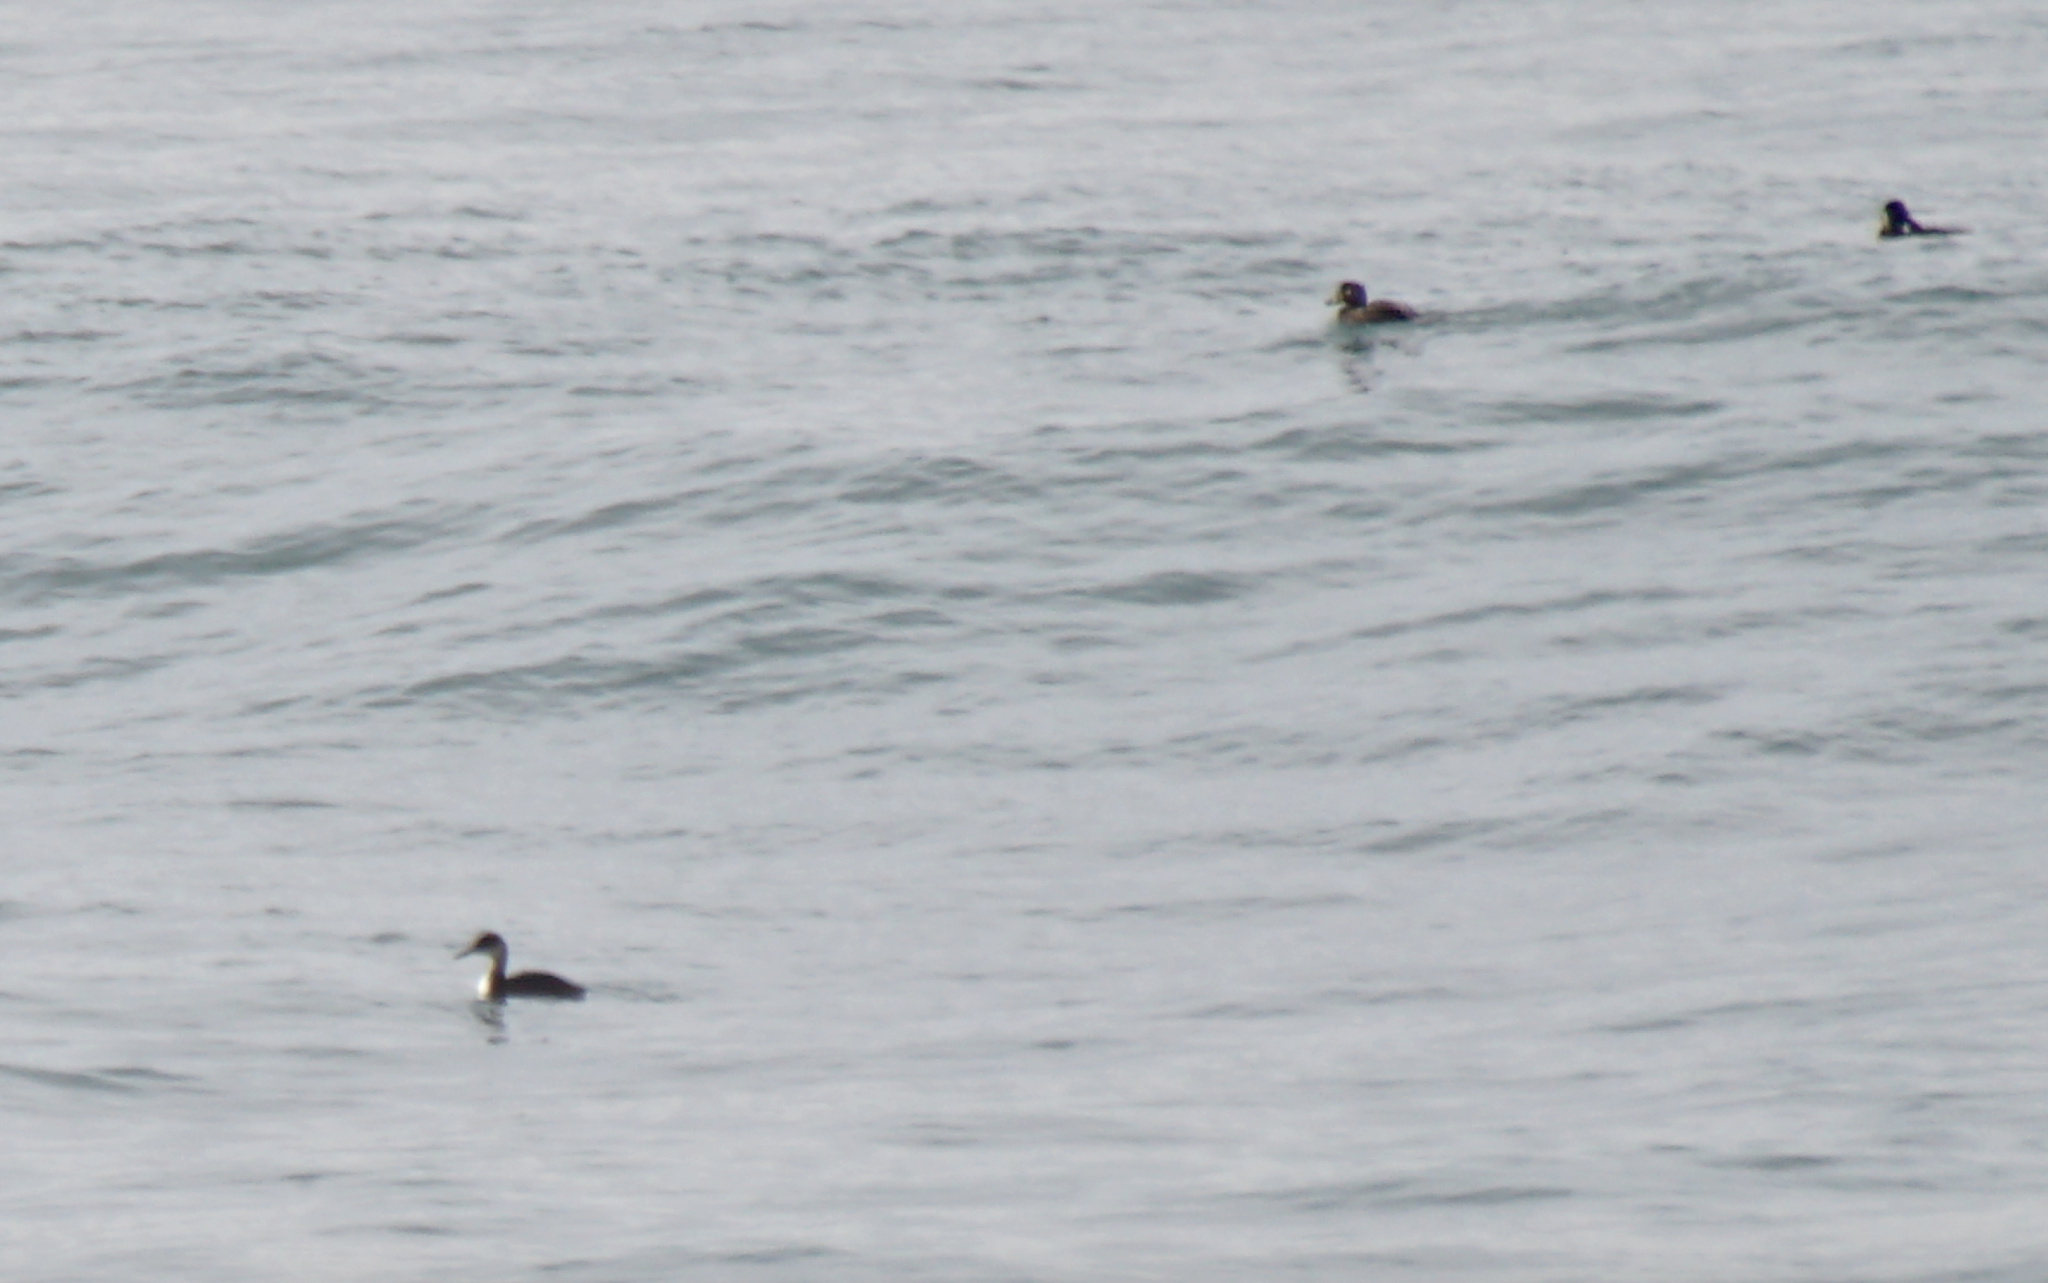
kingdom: Animalia
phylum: Chordata
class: Aves
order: Podicipediformes
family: Podicipedidae
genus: Podiceps
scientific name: Podiceps grisegena
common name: Red-necked grebe
